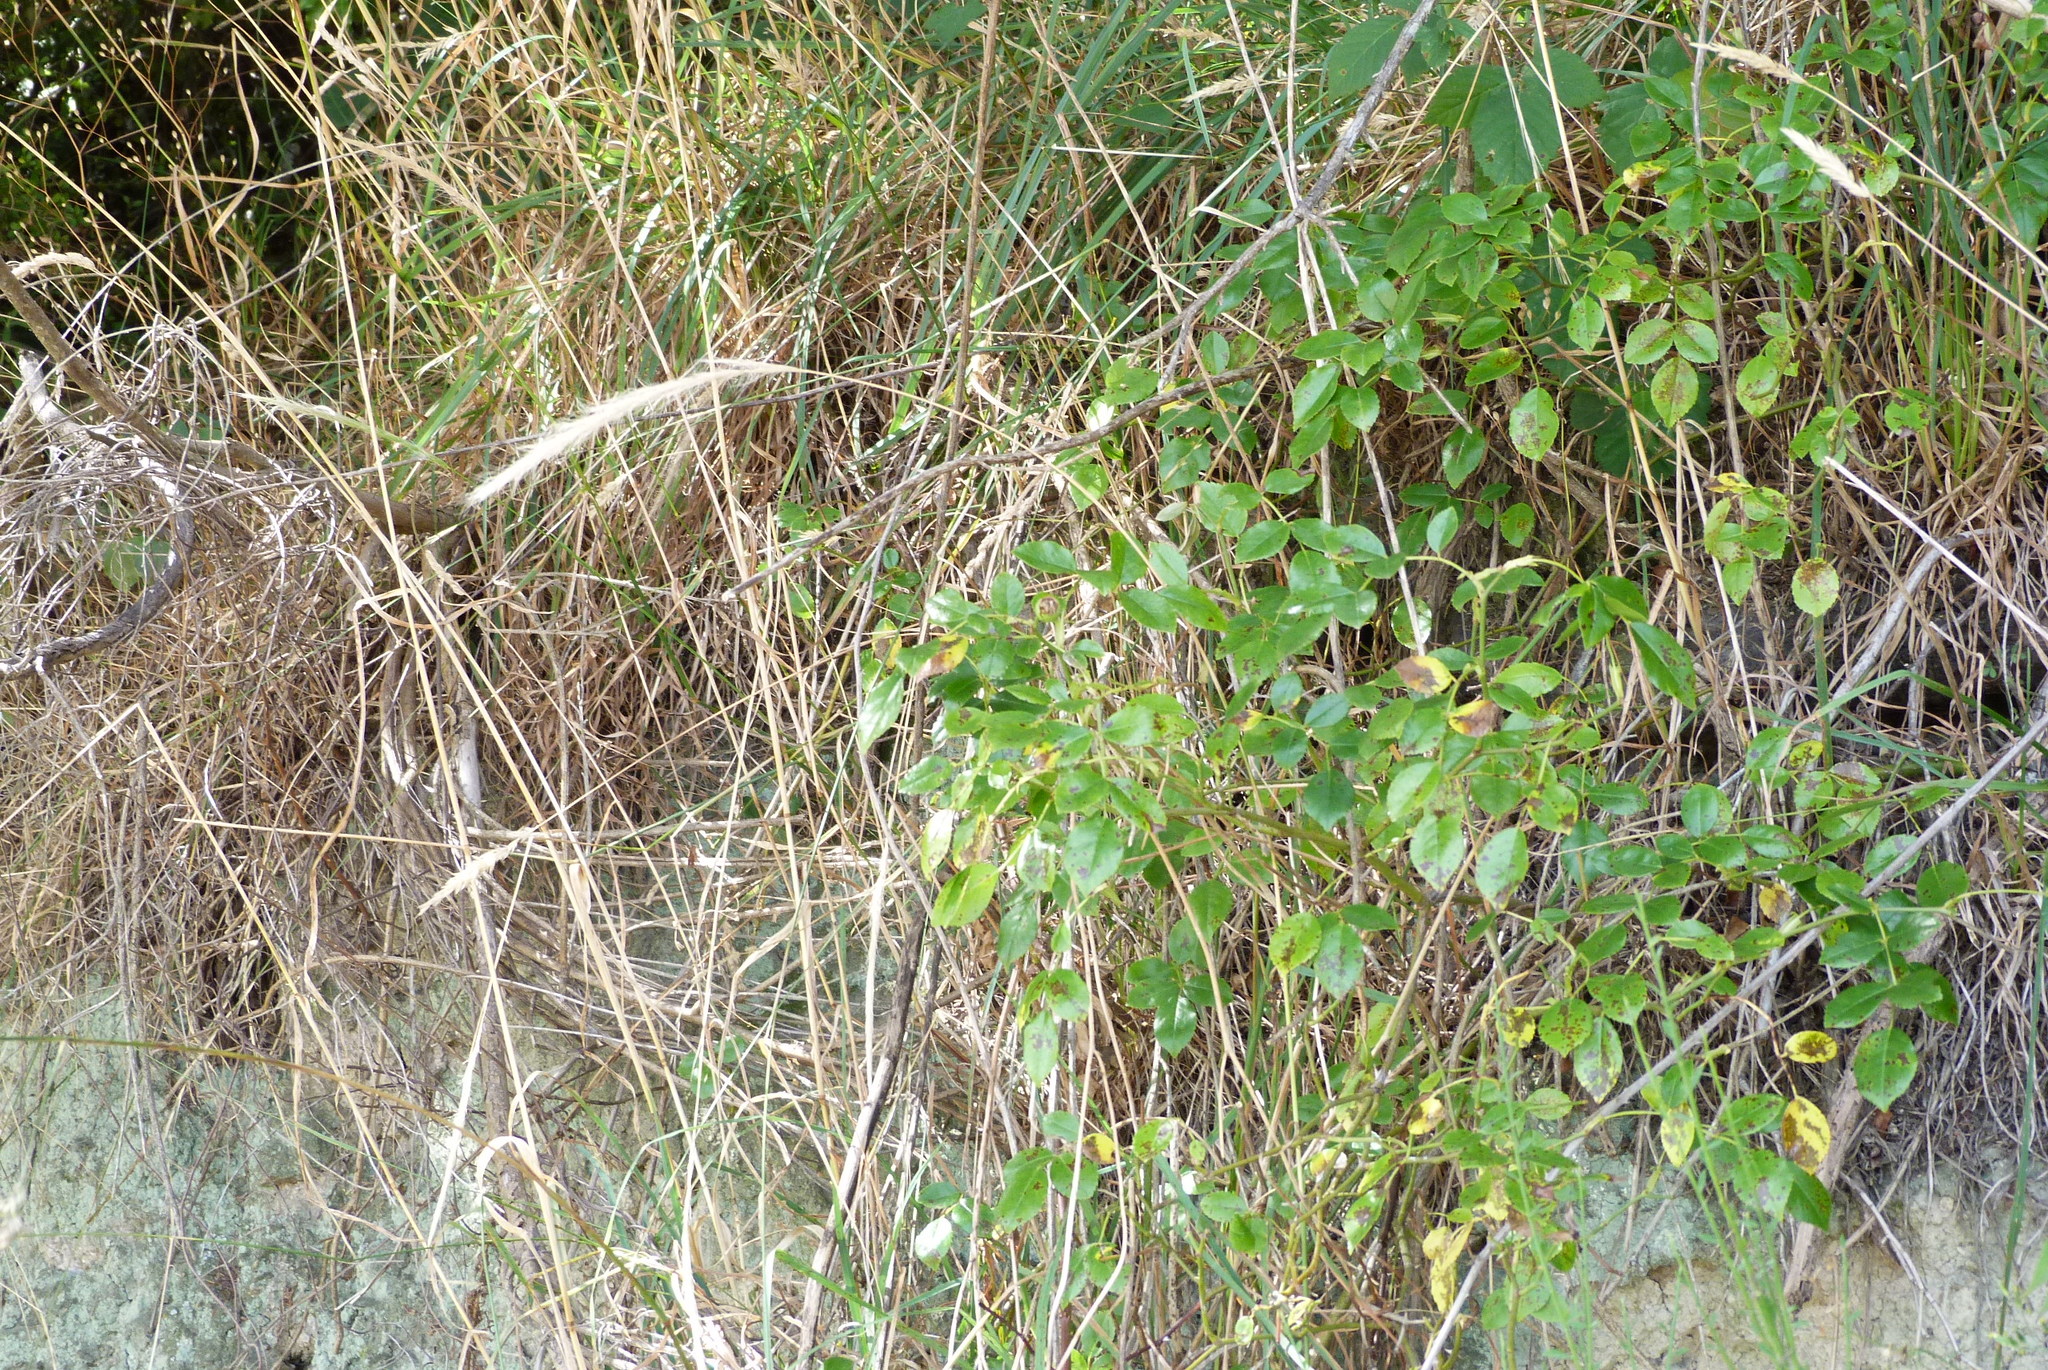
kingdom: Plantae
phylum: Tracheophyta
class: Liliopsida
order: Poales
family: Poaceae
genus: Dichelachne
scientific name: Dichelachne crinita
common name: Clovenfoot plumegrass
